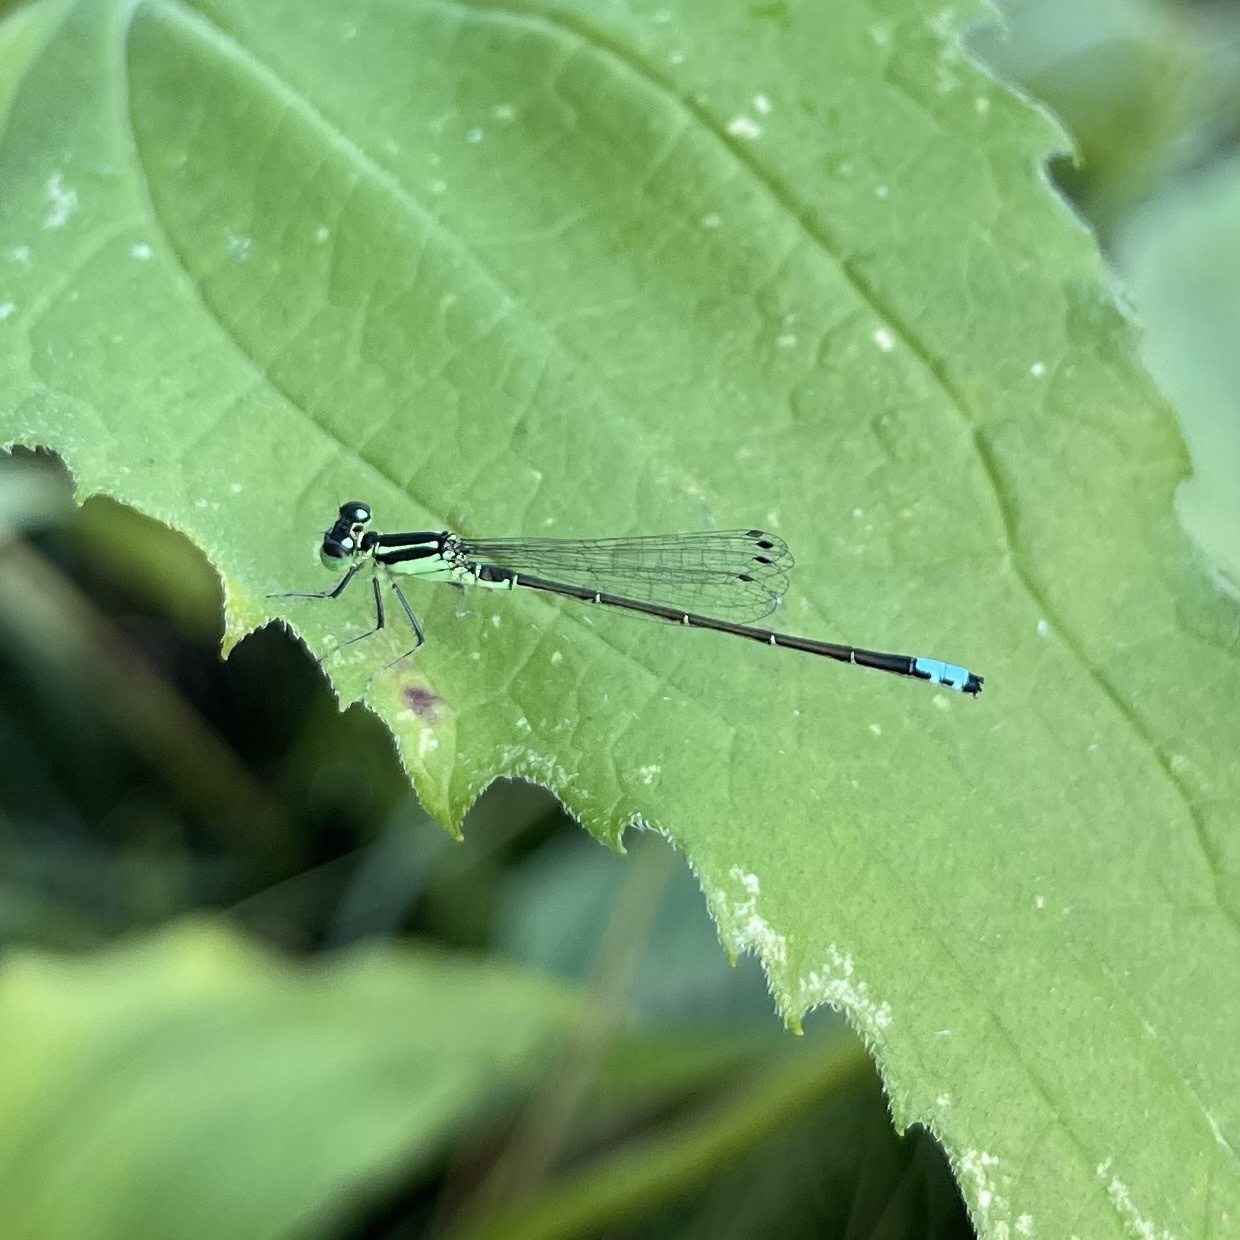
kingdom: Animalia
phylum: Arthropoda
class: Insecta
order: Odonata
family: Coenagrionidae
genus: Ischnura
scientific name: Ischnura verticalis
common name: Eastern forktail
